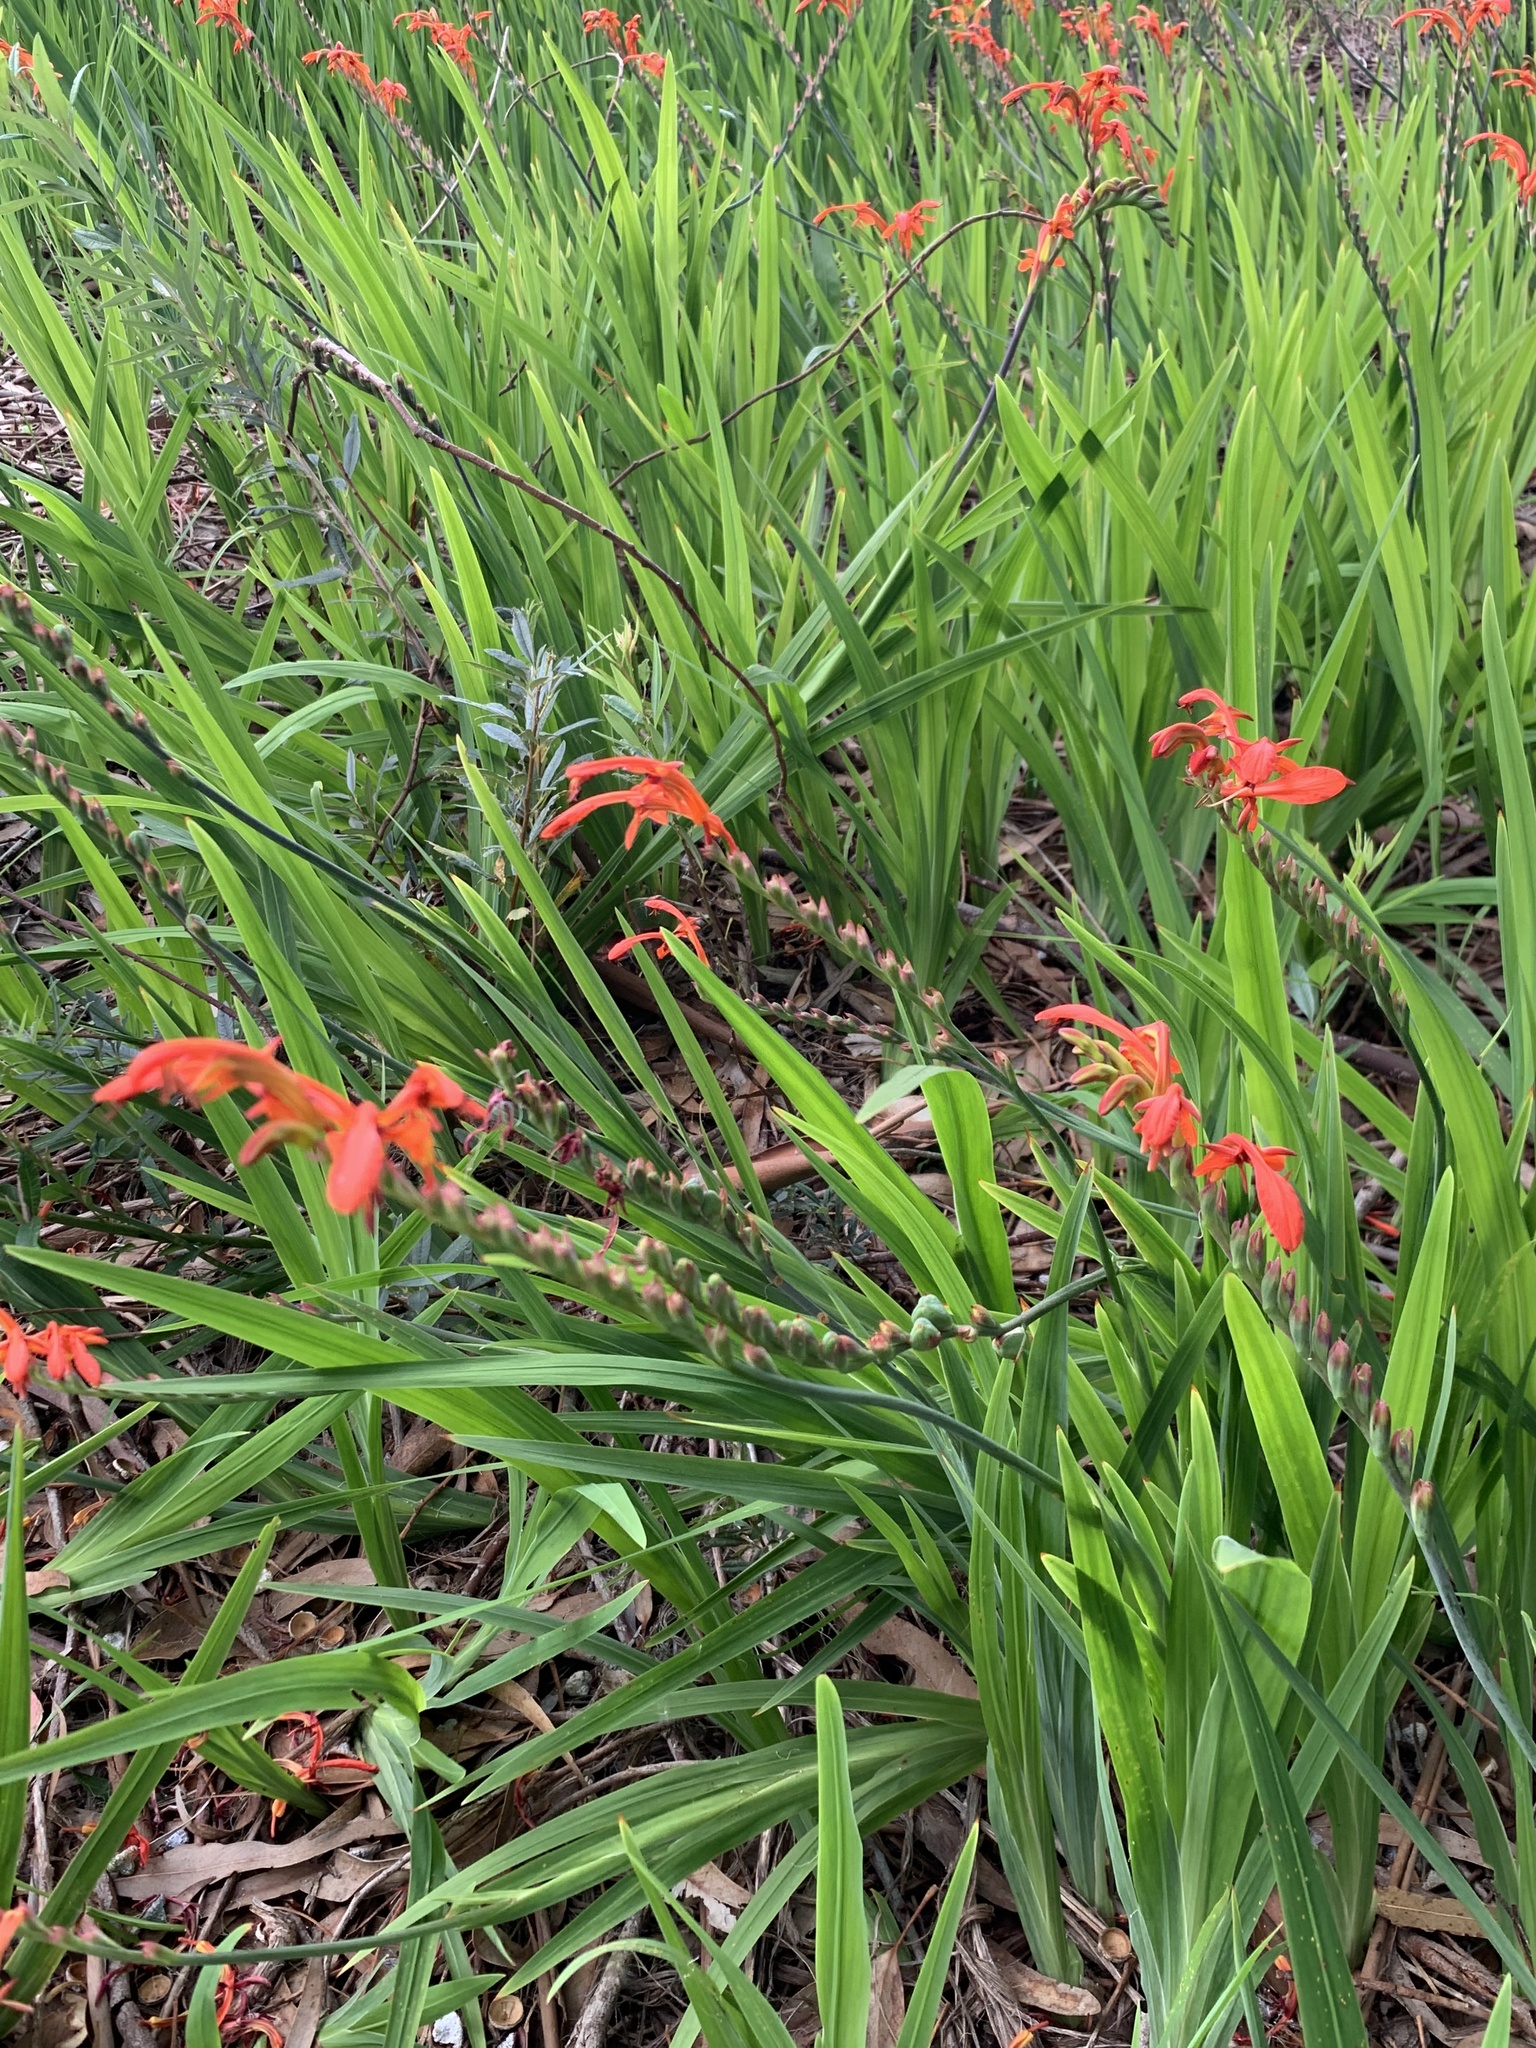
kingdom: Plantae
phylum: Tracheophyta
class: Liliopsida
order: Asparagales
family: Iridaceae
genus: Chasmanthe
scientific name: Chasmanthe aethiopica
